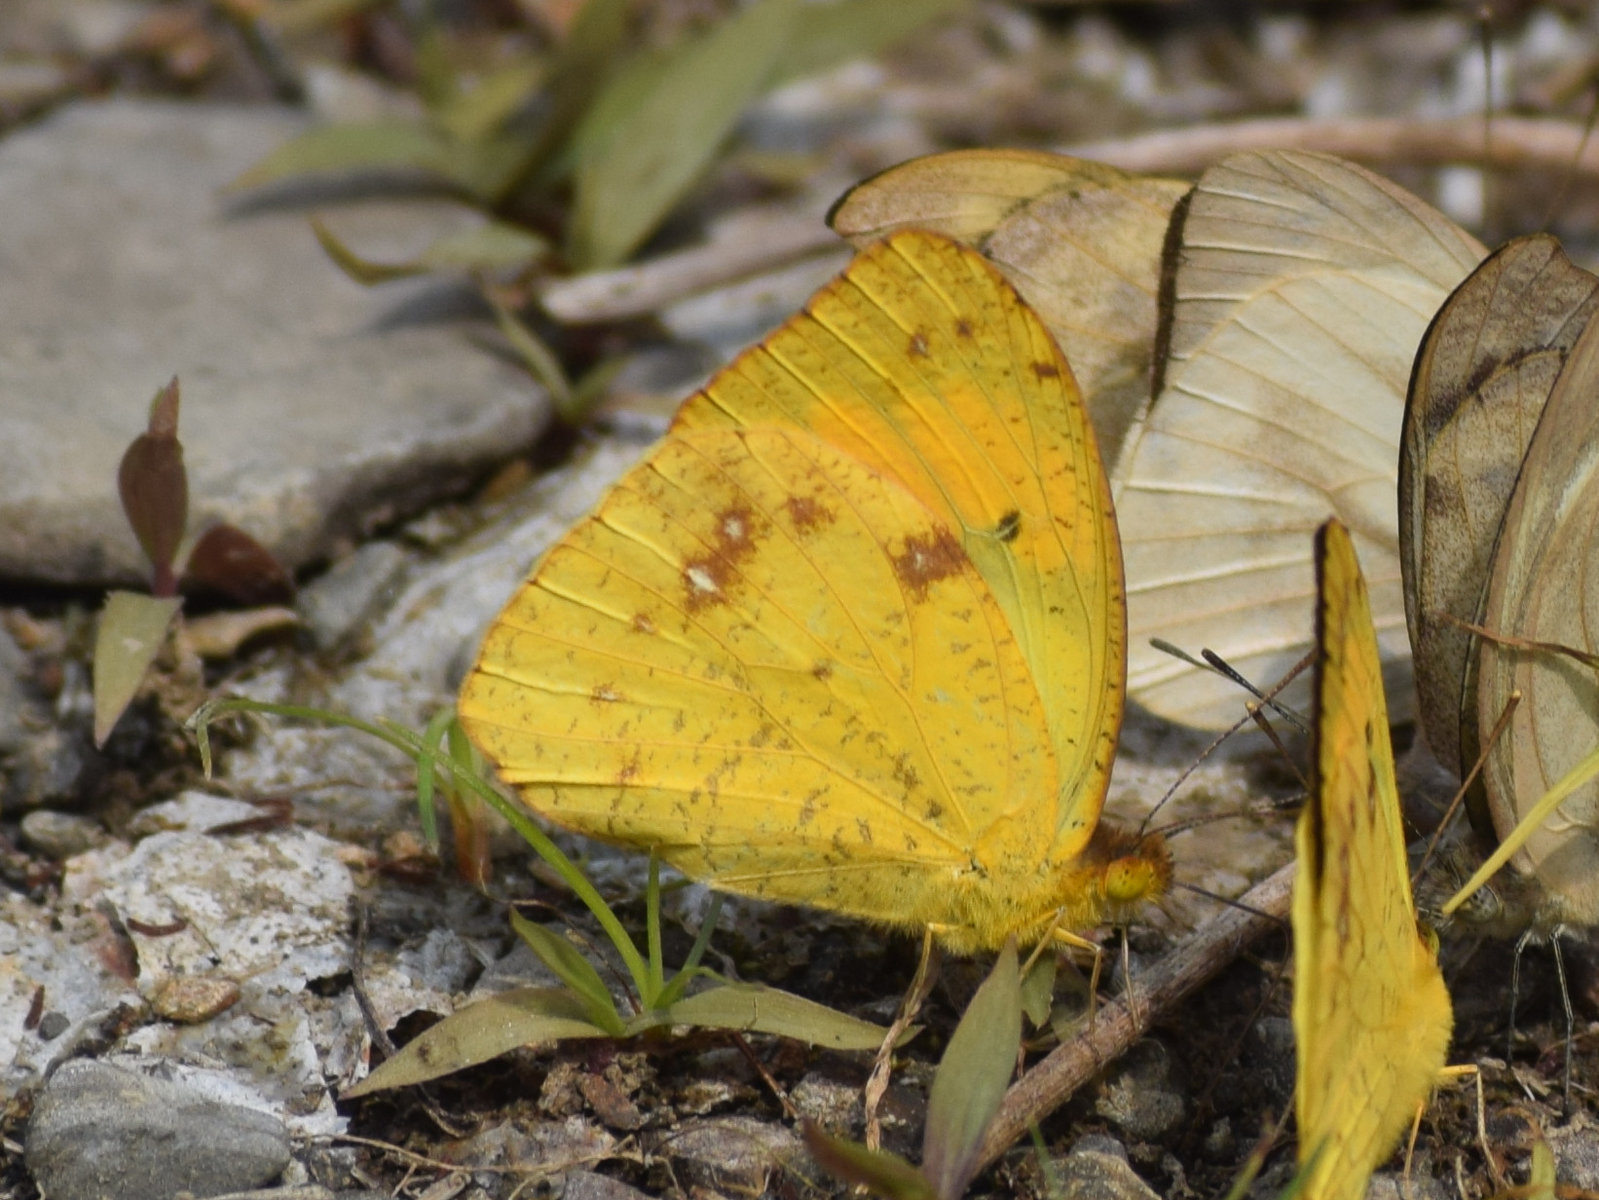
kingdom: Animalia
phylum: Arthropoda
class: Insecta
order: Lepidoptera
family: Pieridae
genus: Ixias
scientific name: Ixias marianne
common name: White orange tip
